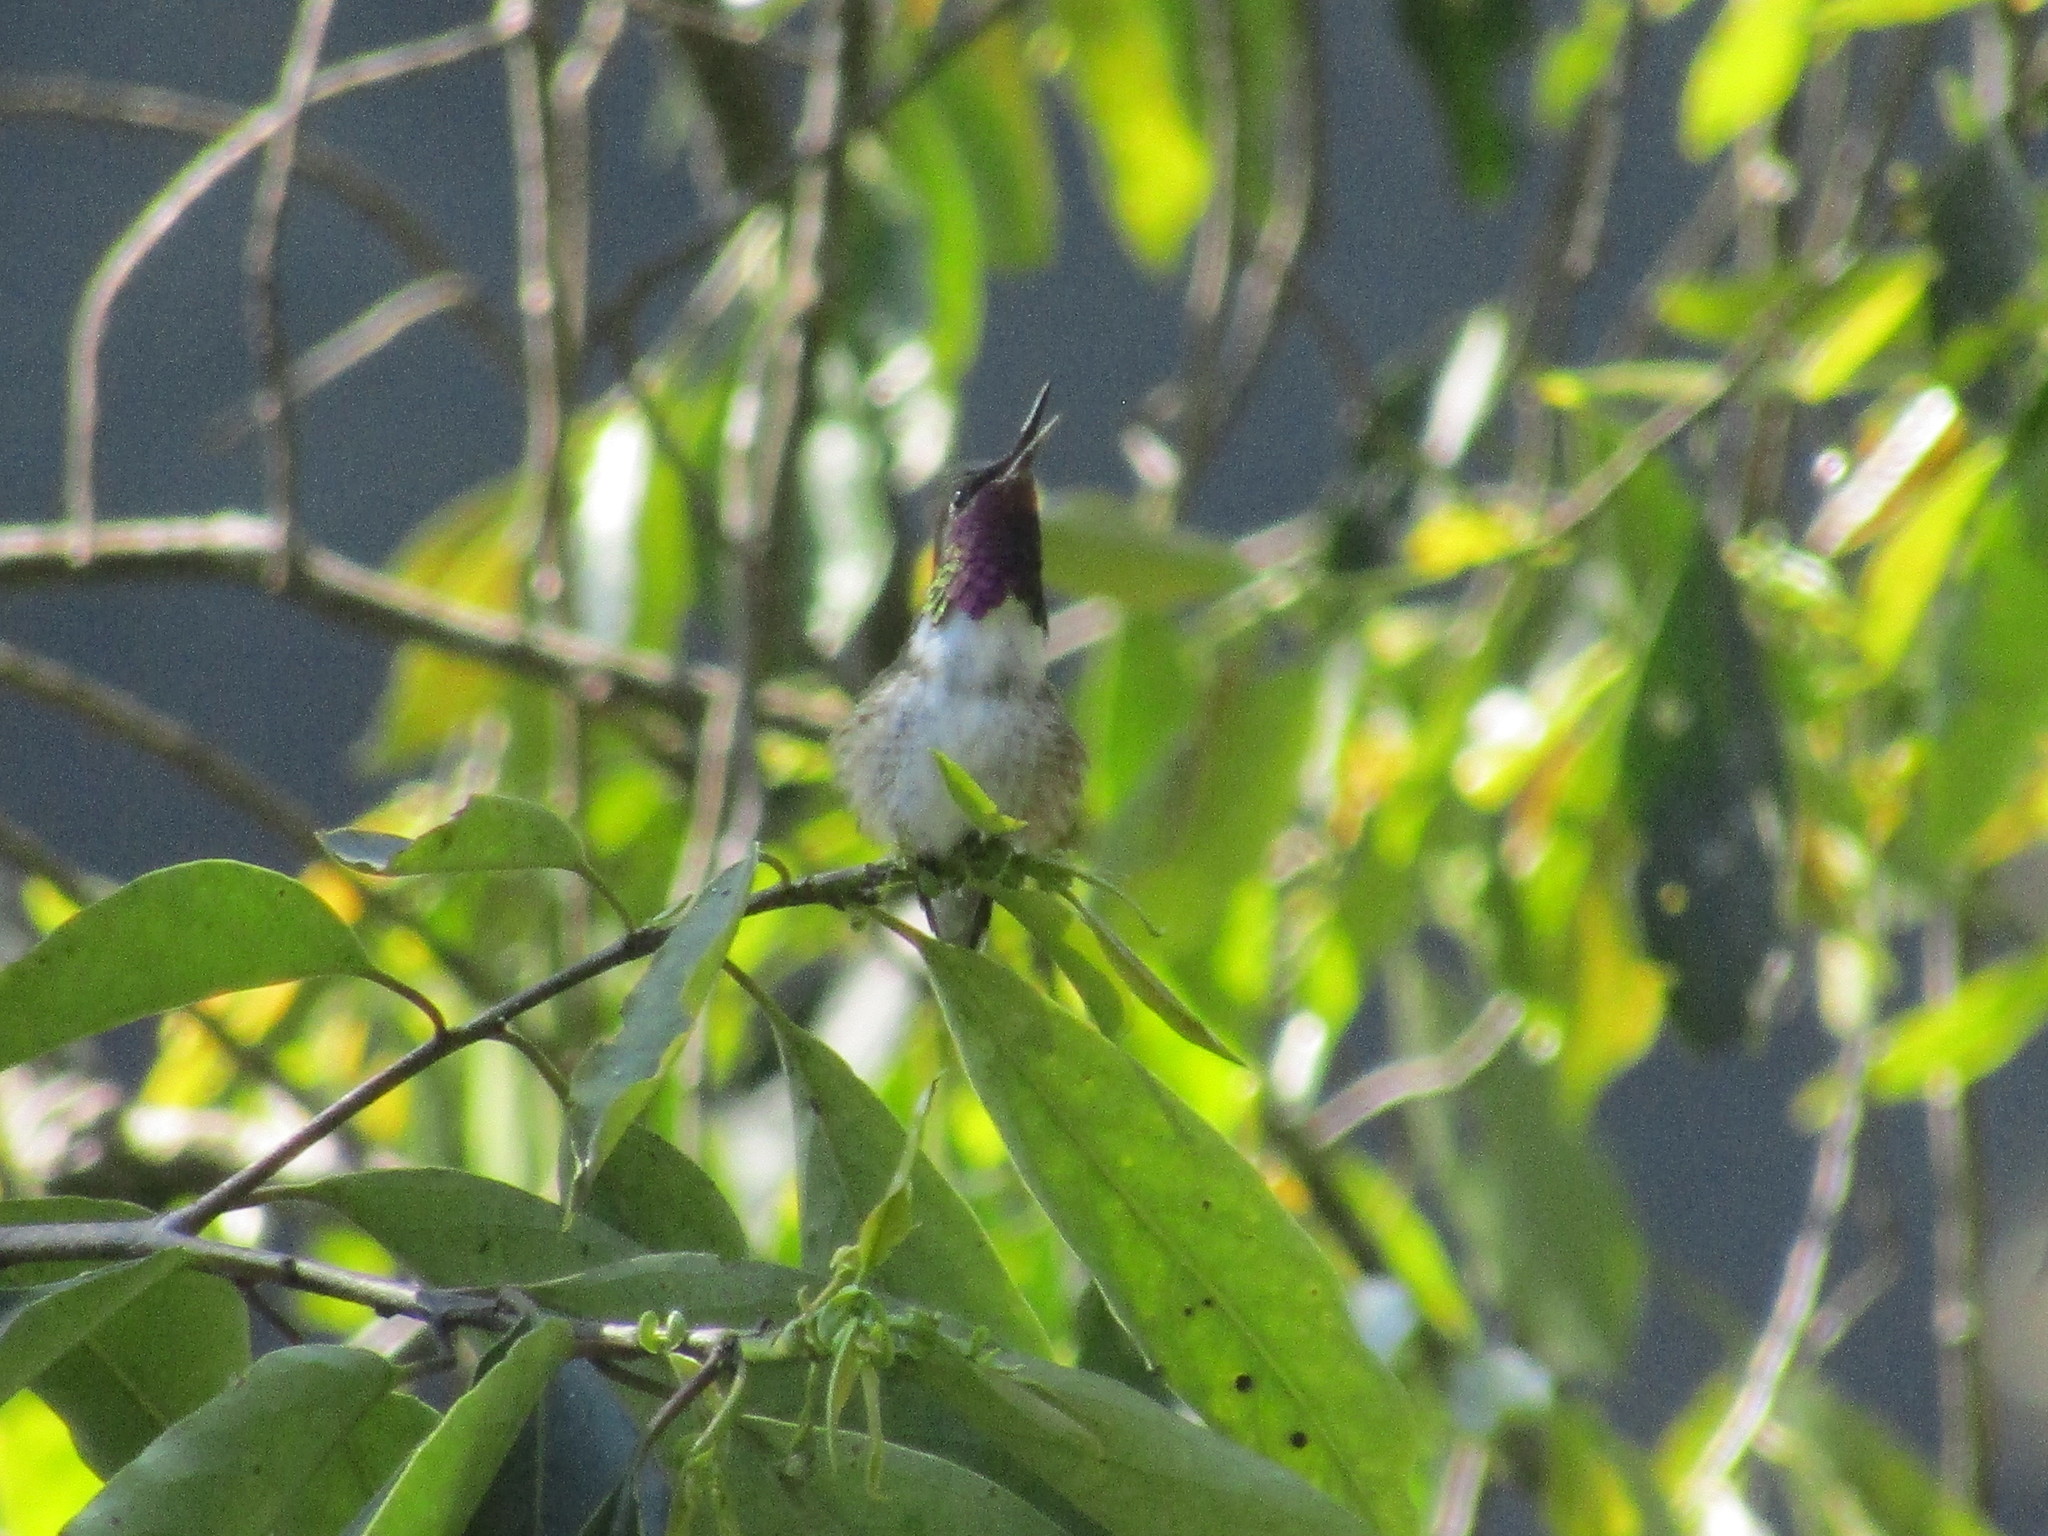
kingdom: Animalia
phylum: Chordata
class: Aves
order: Apodiformes
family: Trochilidae
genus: Selasphorus
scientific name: Selasphorus heloisa
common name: Bumblebee hummingbird
